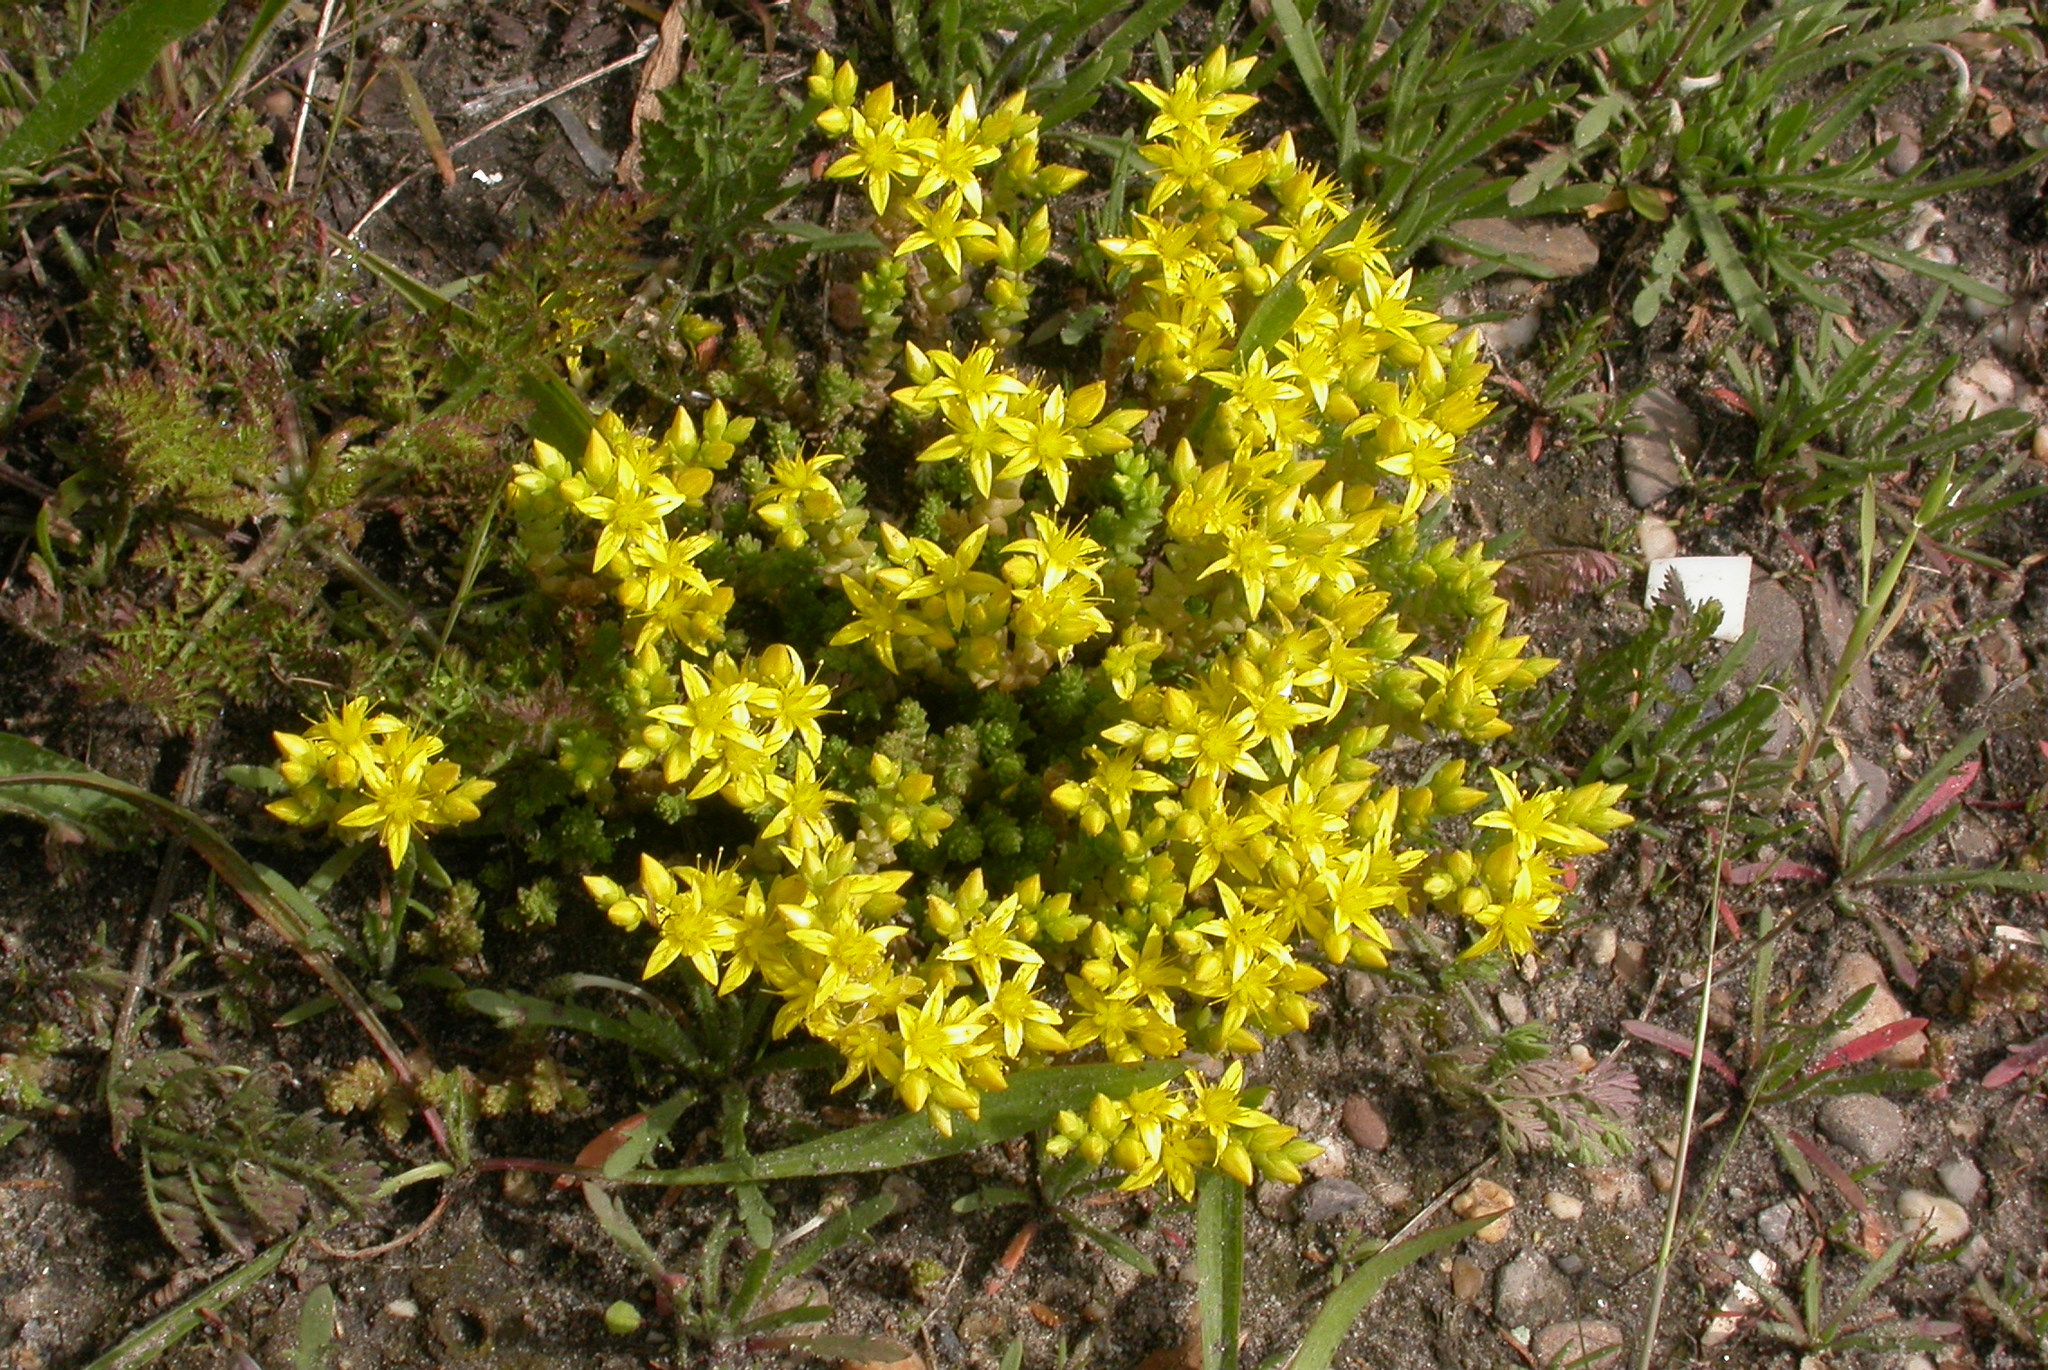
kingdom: Plantae
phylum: Tracheophyta
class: Magnoliopsida
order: Saxifragales
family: Crassulaceae
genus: Sedum
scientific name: Sedum acre
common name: Biting stonecrop
